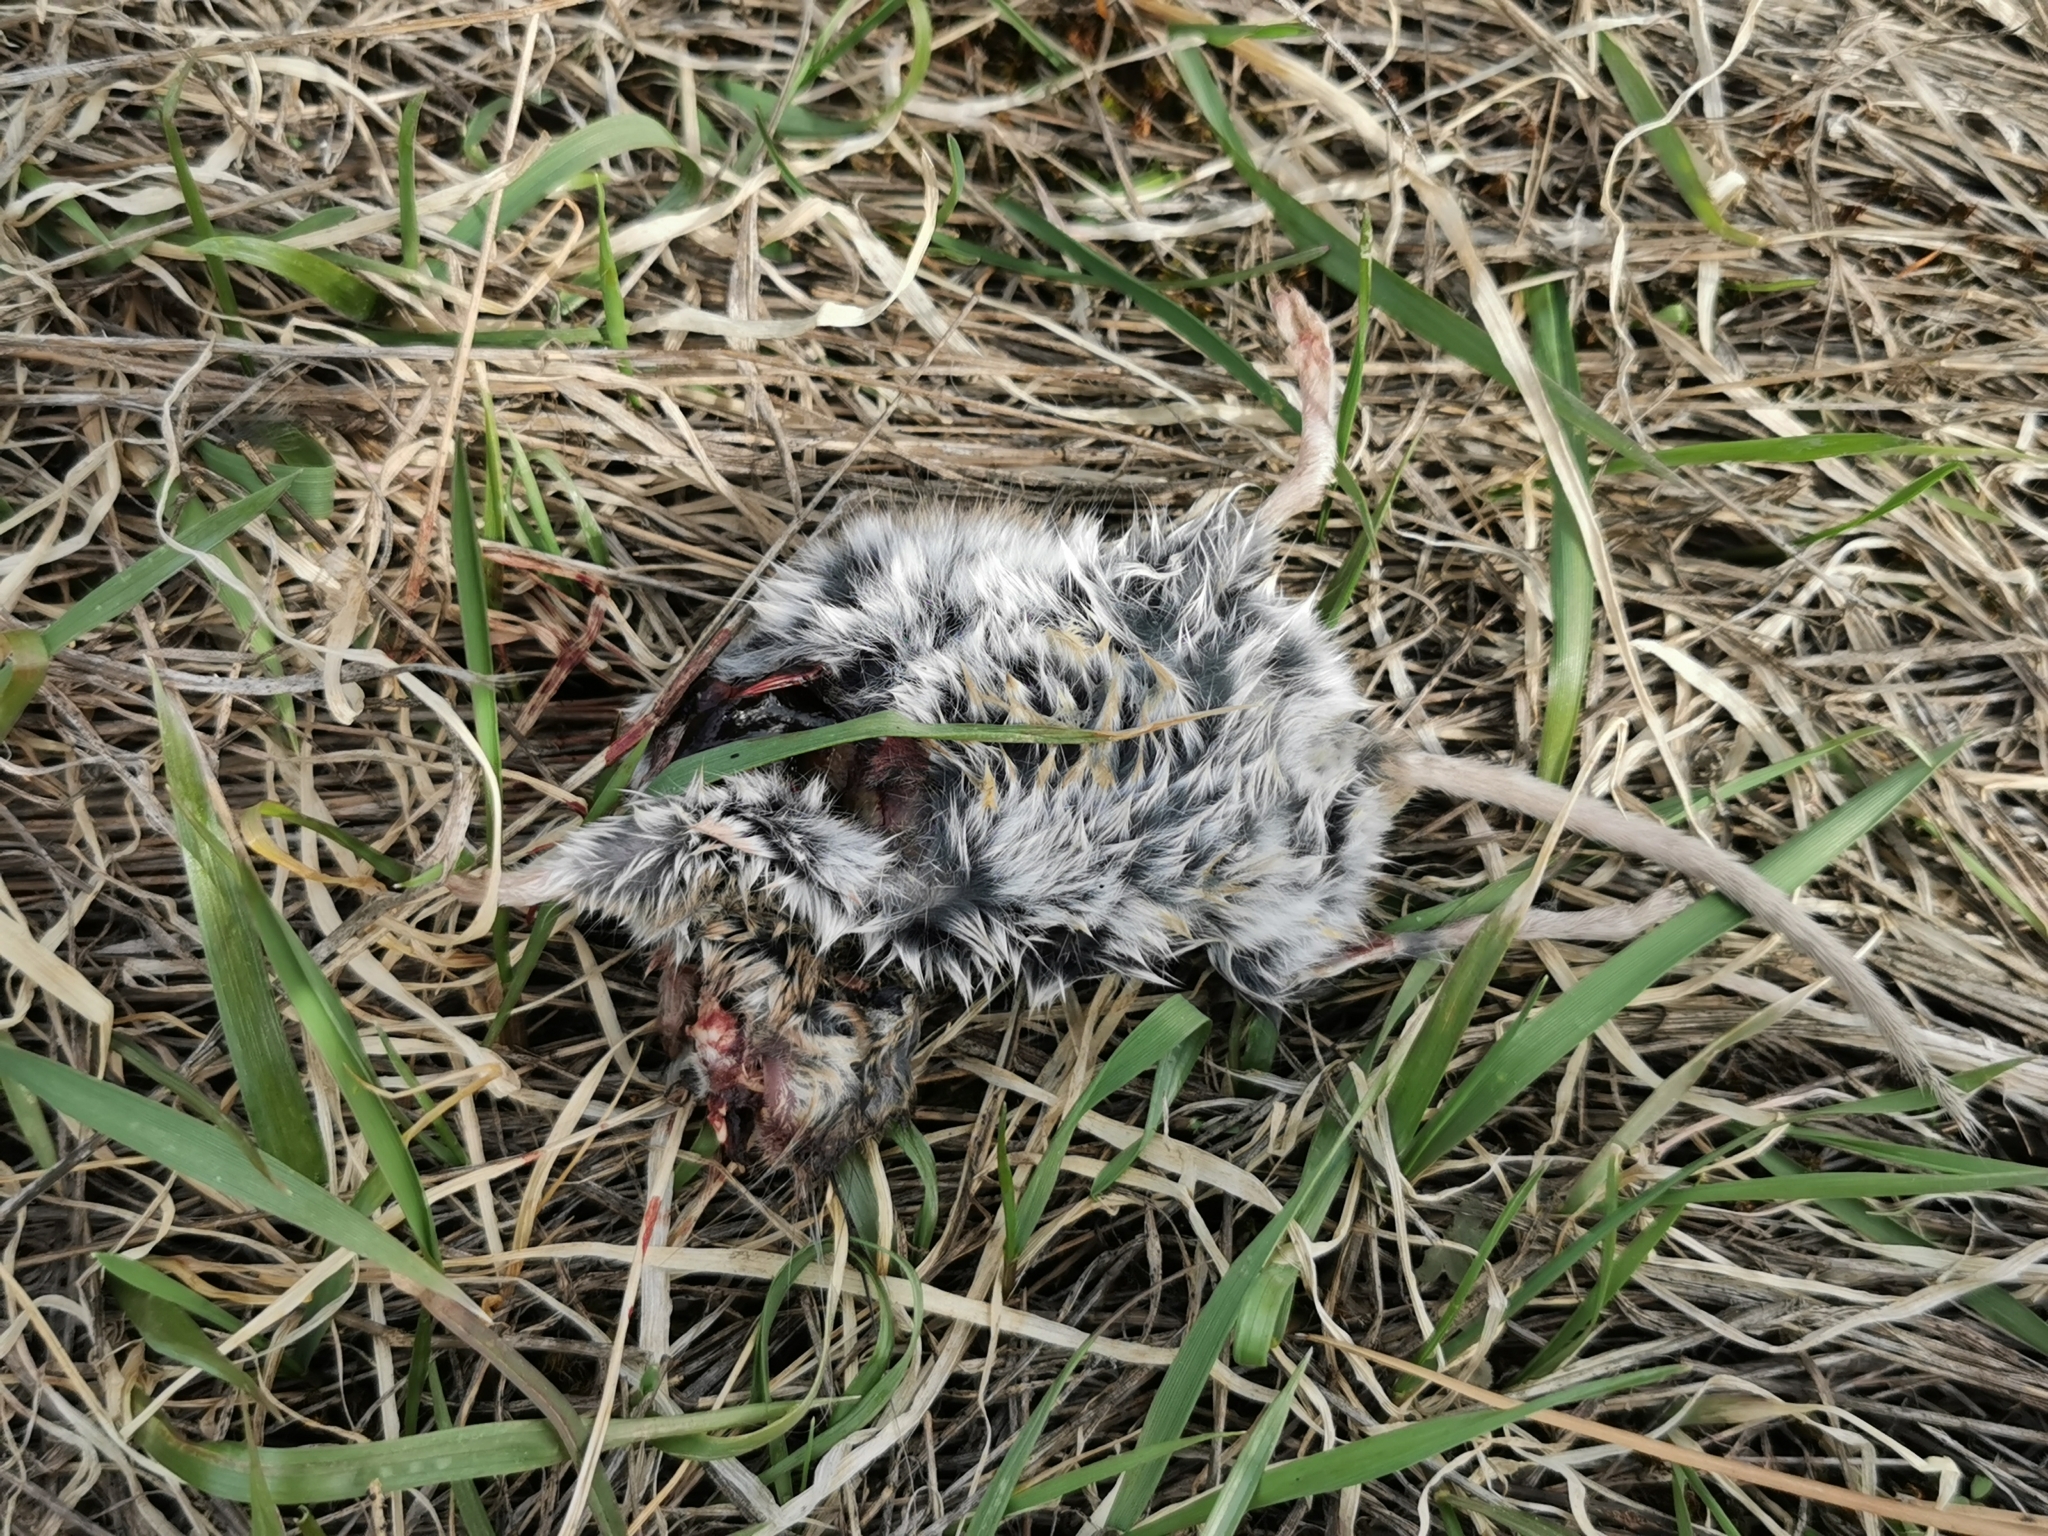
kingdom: Animalia
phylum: Chordata
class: Mammalia
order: Rodentia
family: Cricetidae
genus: Peromyscus
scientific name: Peromyscus maniculatus
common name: Deer mouse
